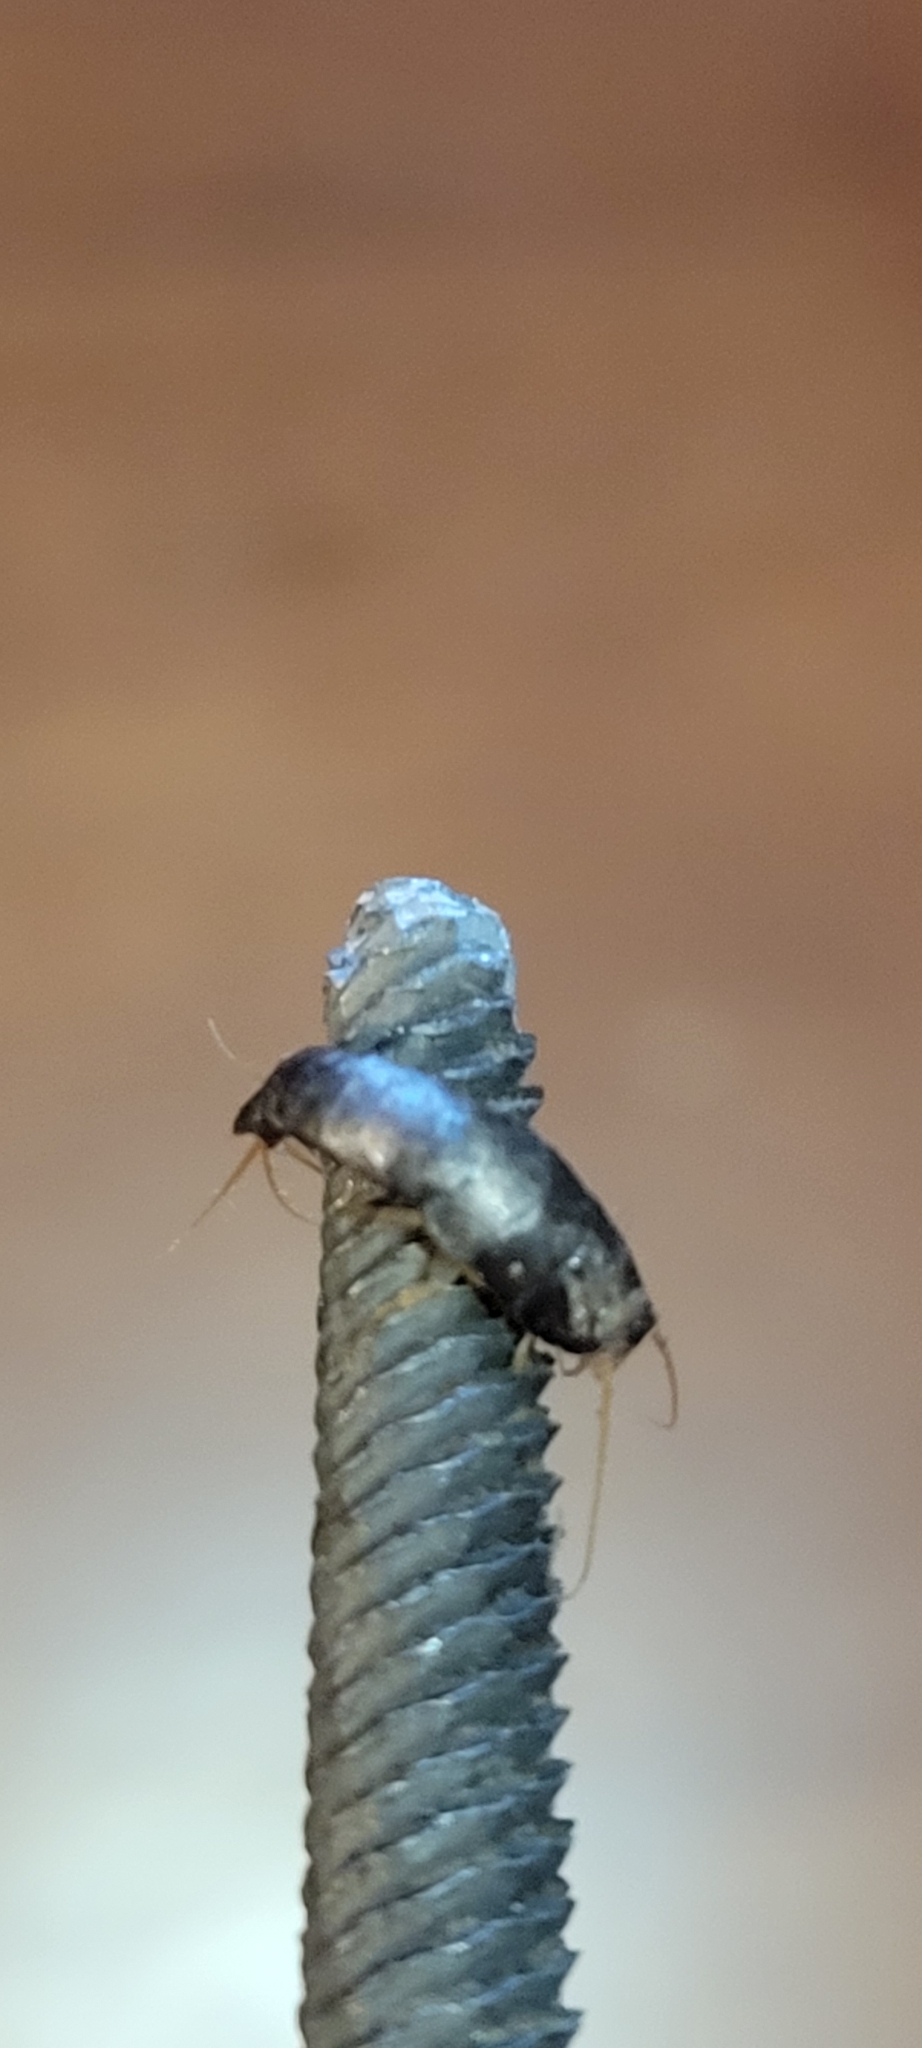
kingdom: Animalia
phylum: Arthropoda
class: Insecta
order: Zygentoma
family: Lepismatidae
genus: Lepisma
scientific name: Lepisma saccharinum
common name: Silverfish
